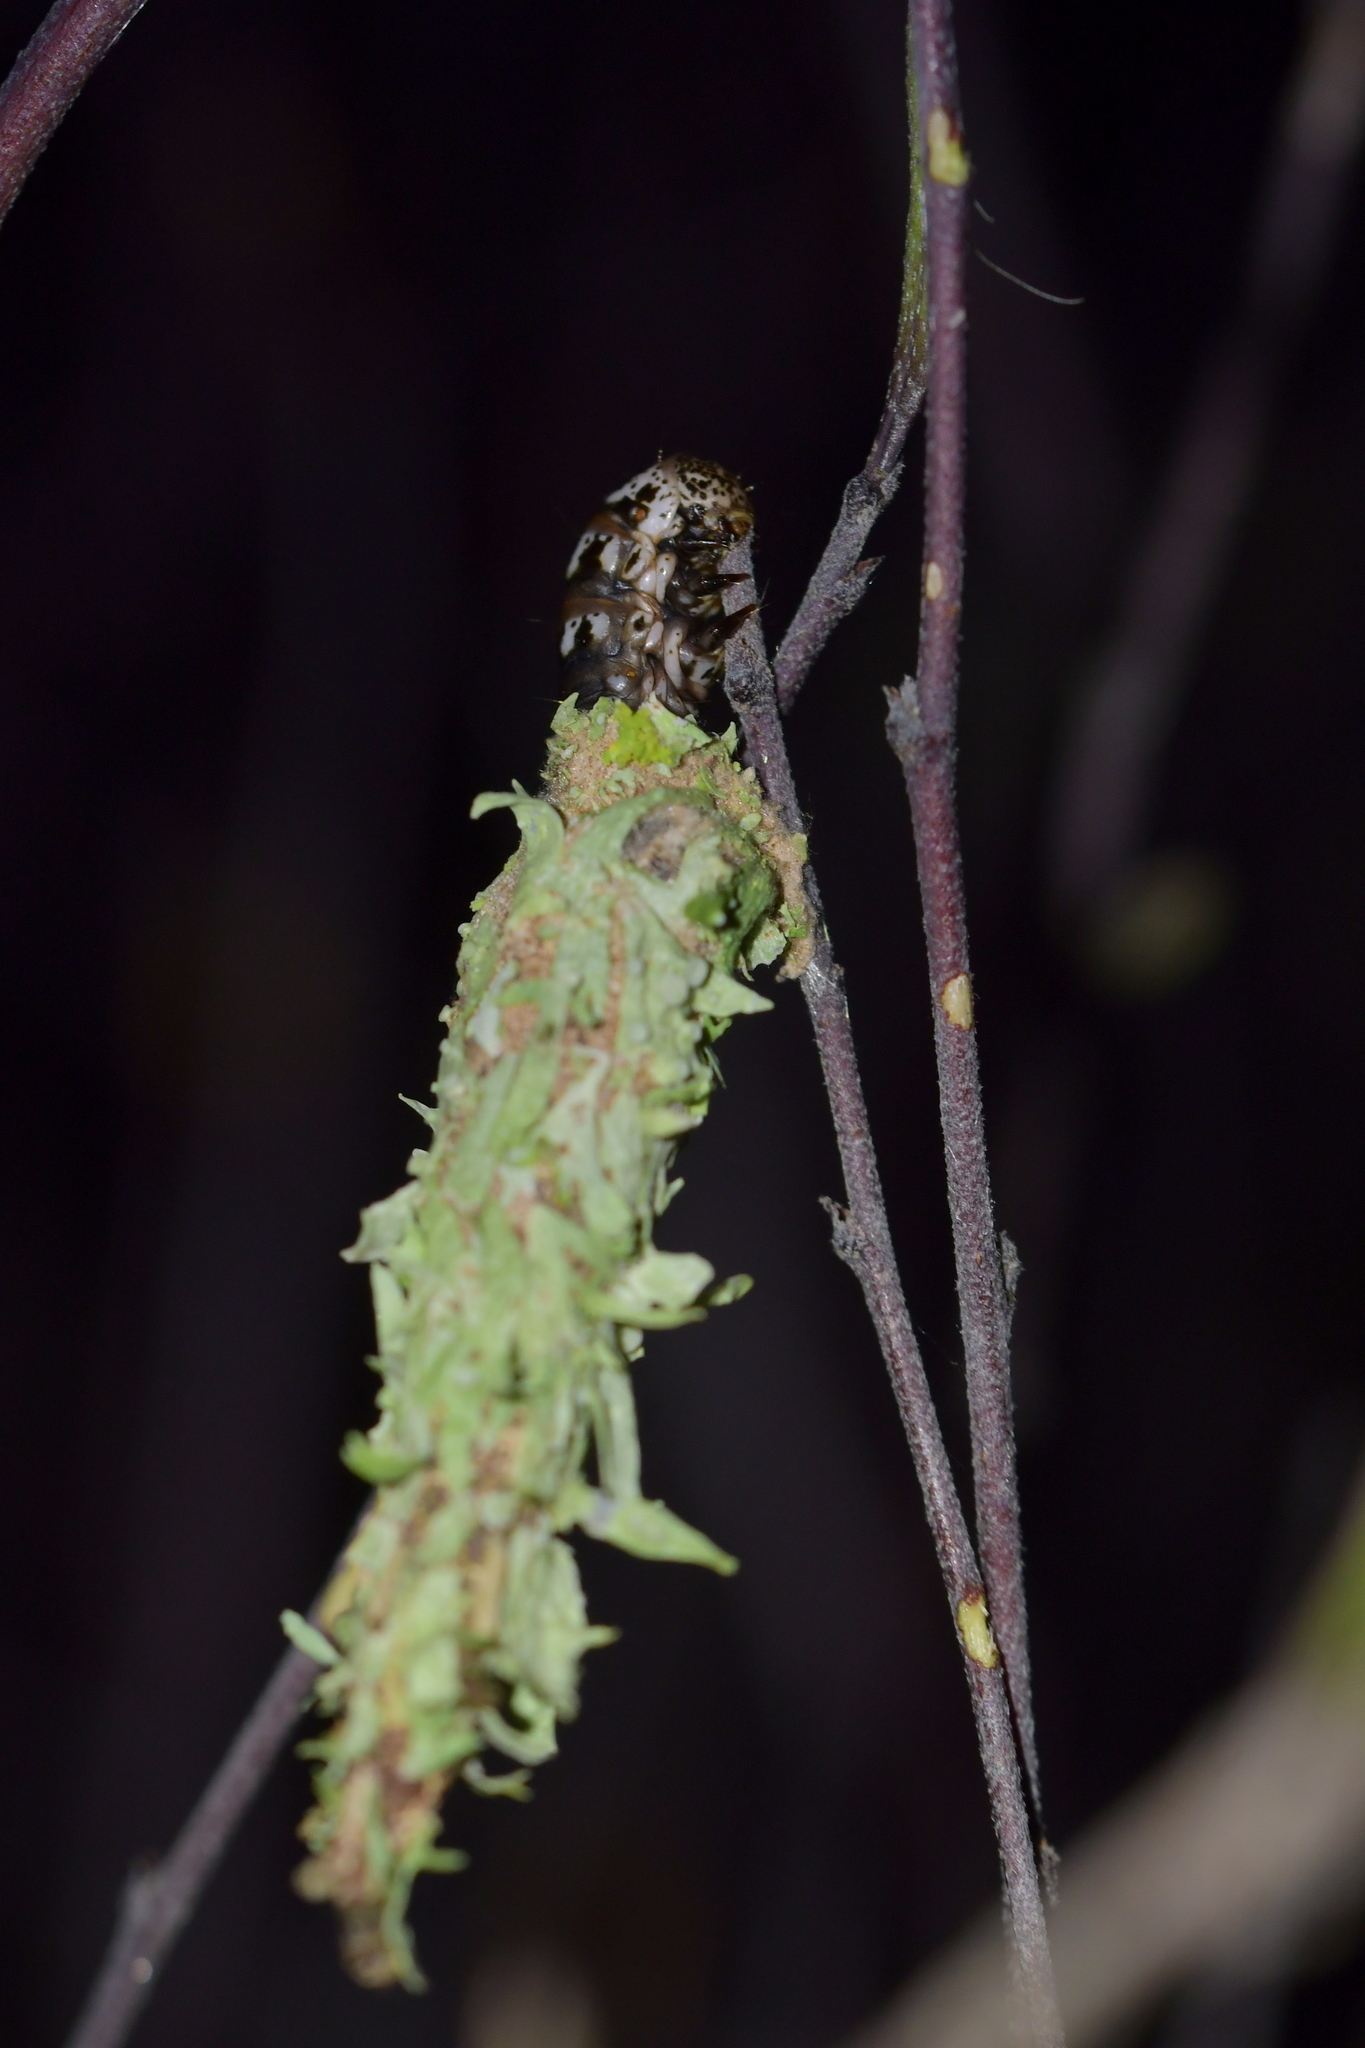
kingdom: Animalia
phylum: Arthropoda
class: Insecta
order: Lepidoptera
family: Psychidae
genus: Liothula
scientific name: Liothula omnivora
